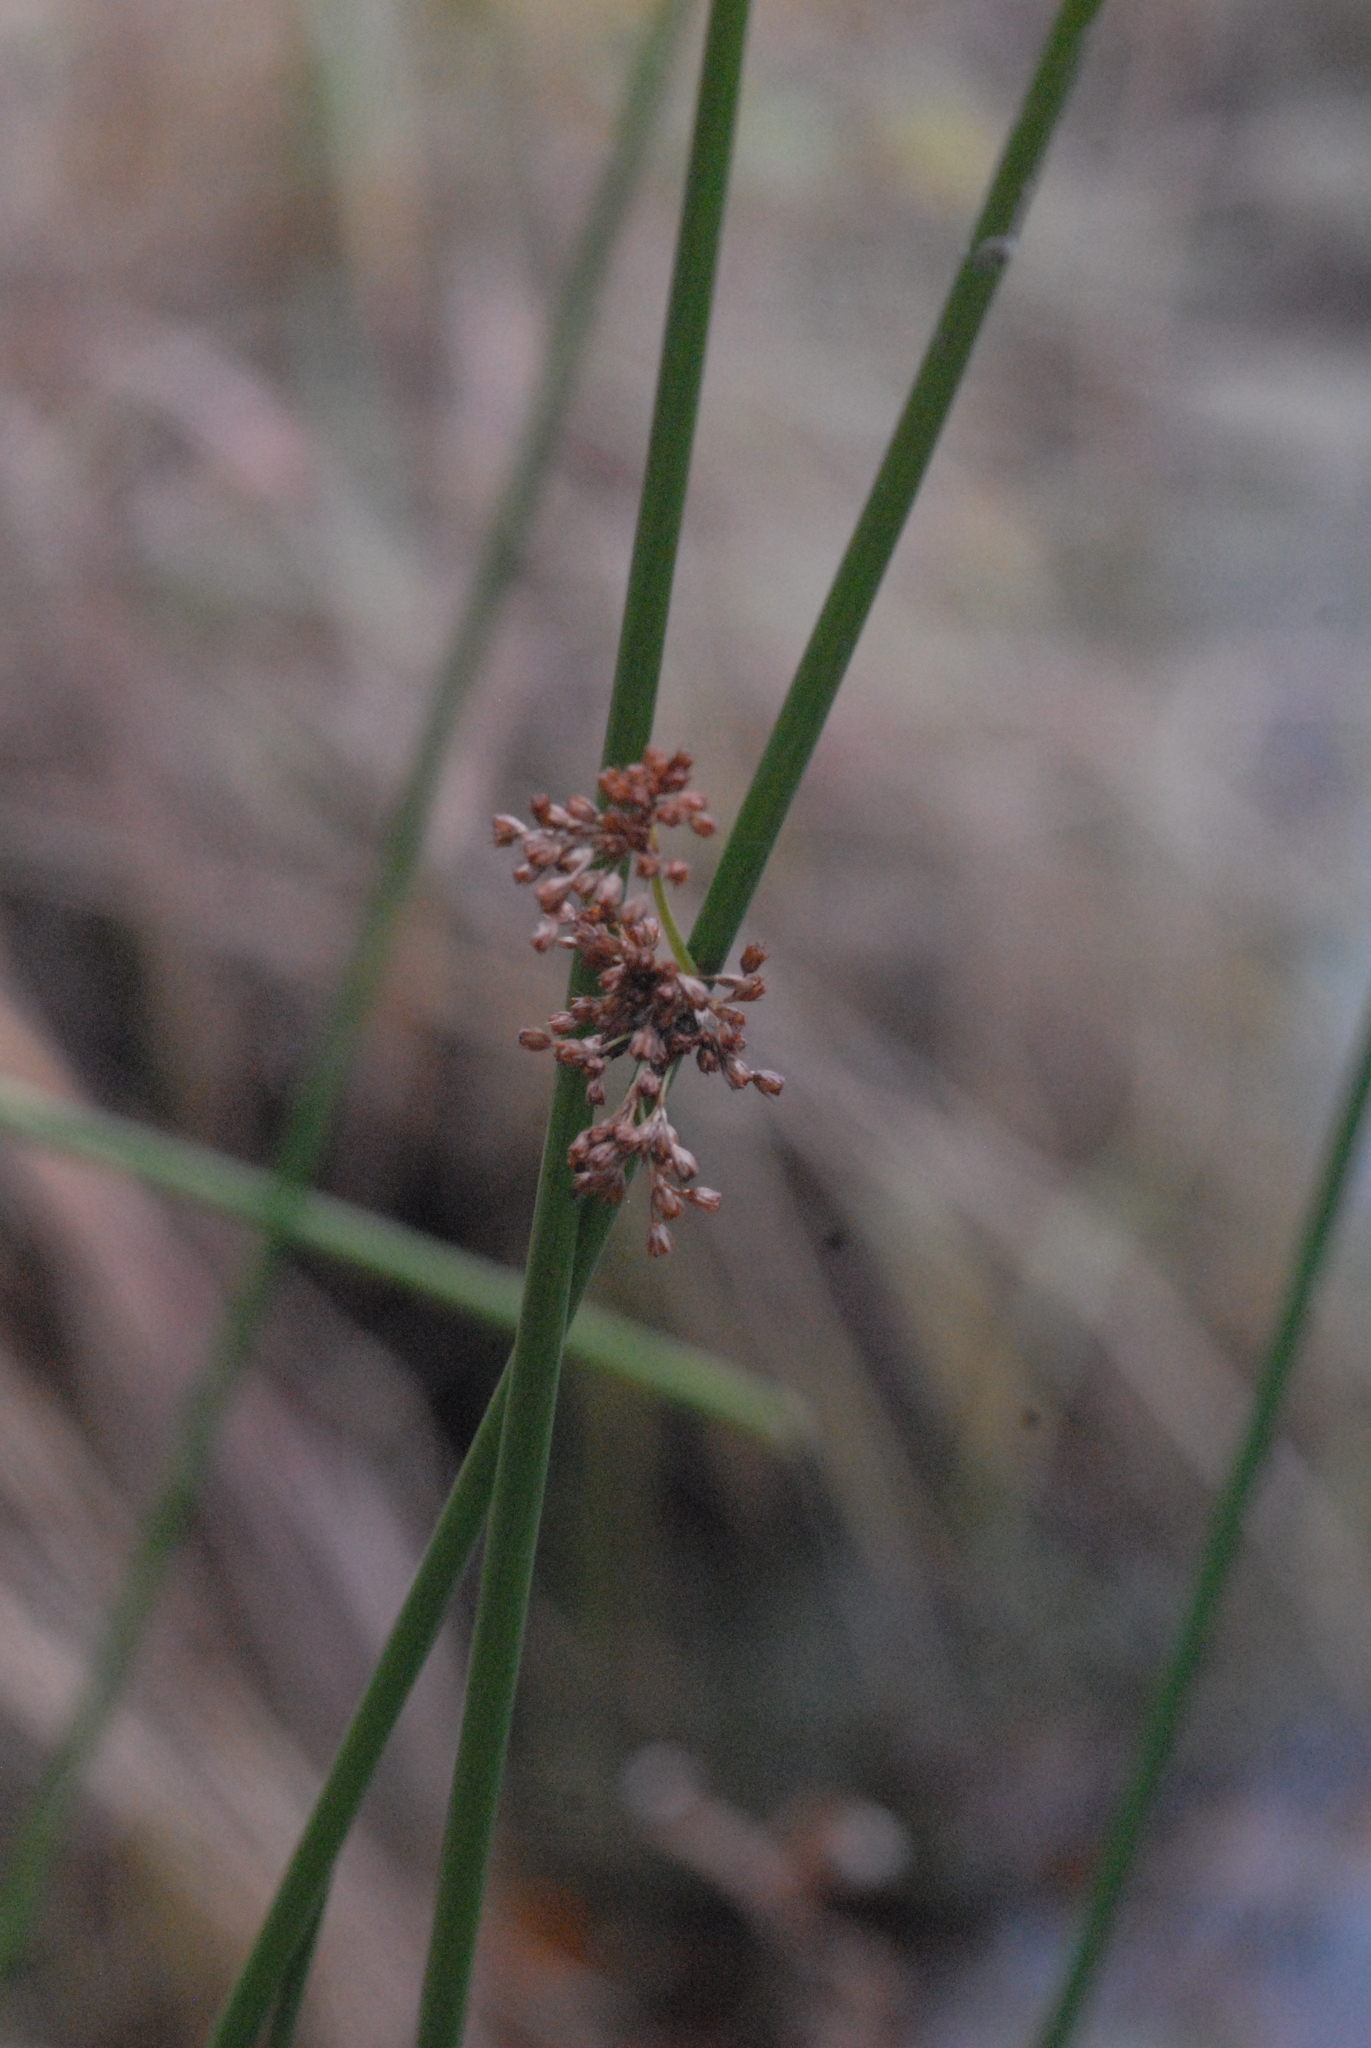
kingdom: Plantae
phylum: Tracheophyta
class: Liliopsida
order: Poales
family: Juncaceae
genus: Juncus
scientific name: Juncus effusus
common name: Soft rush
